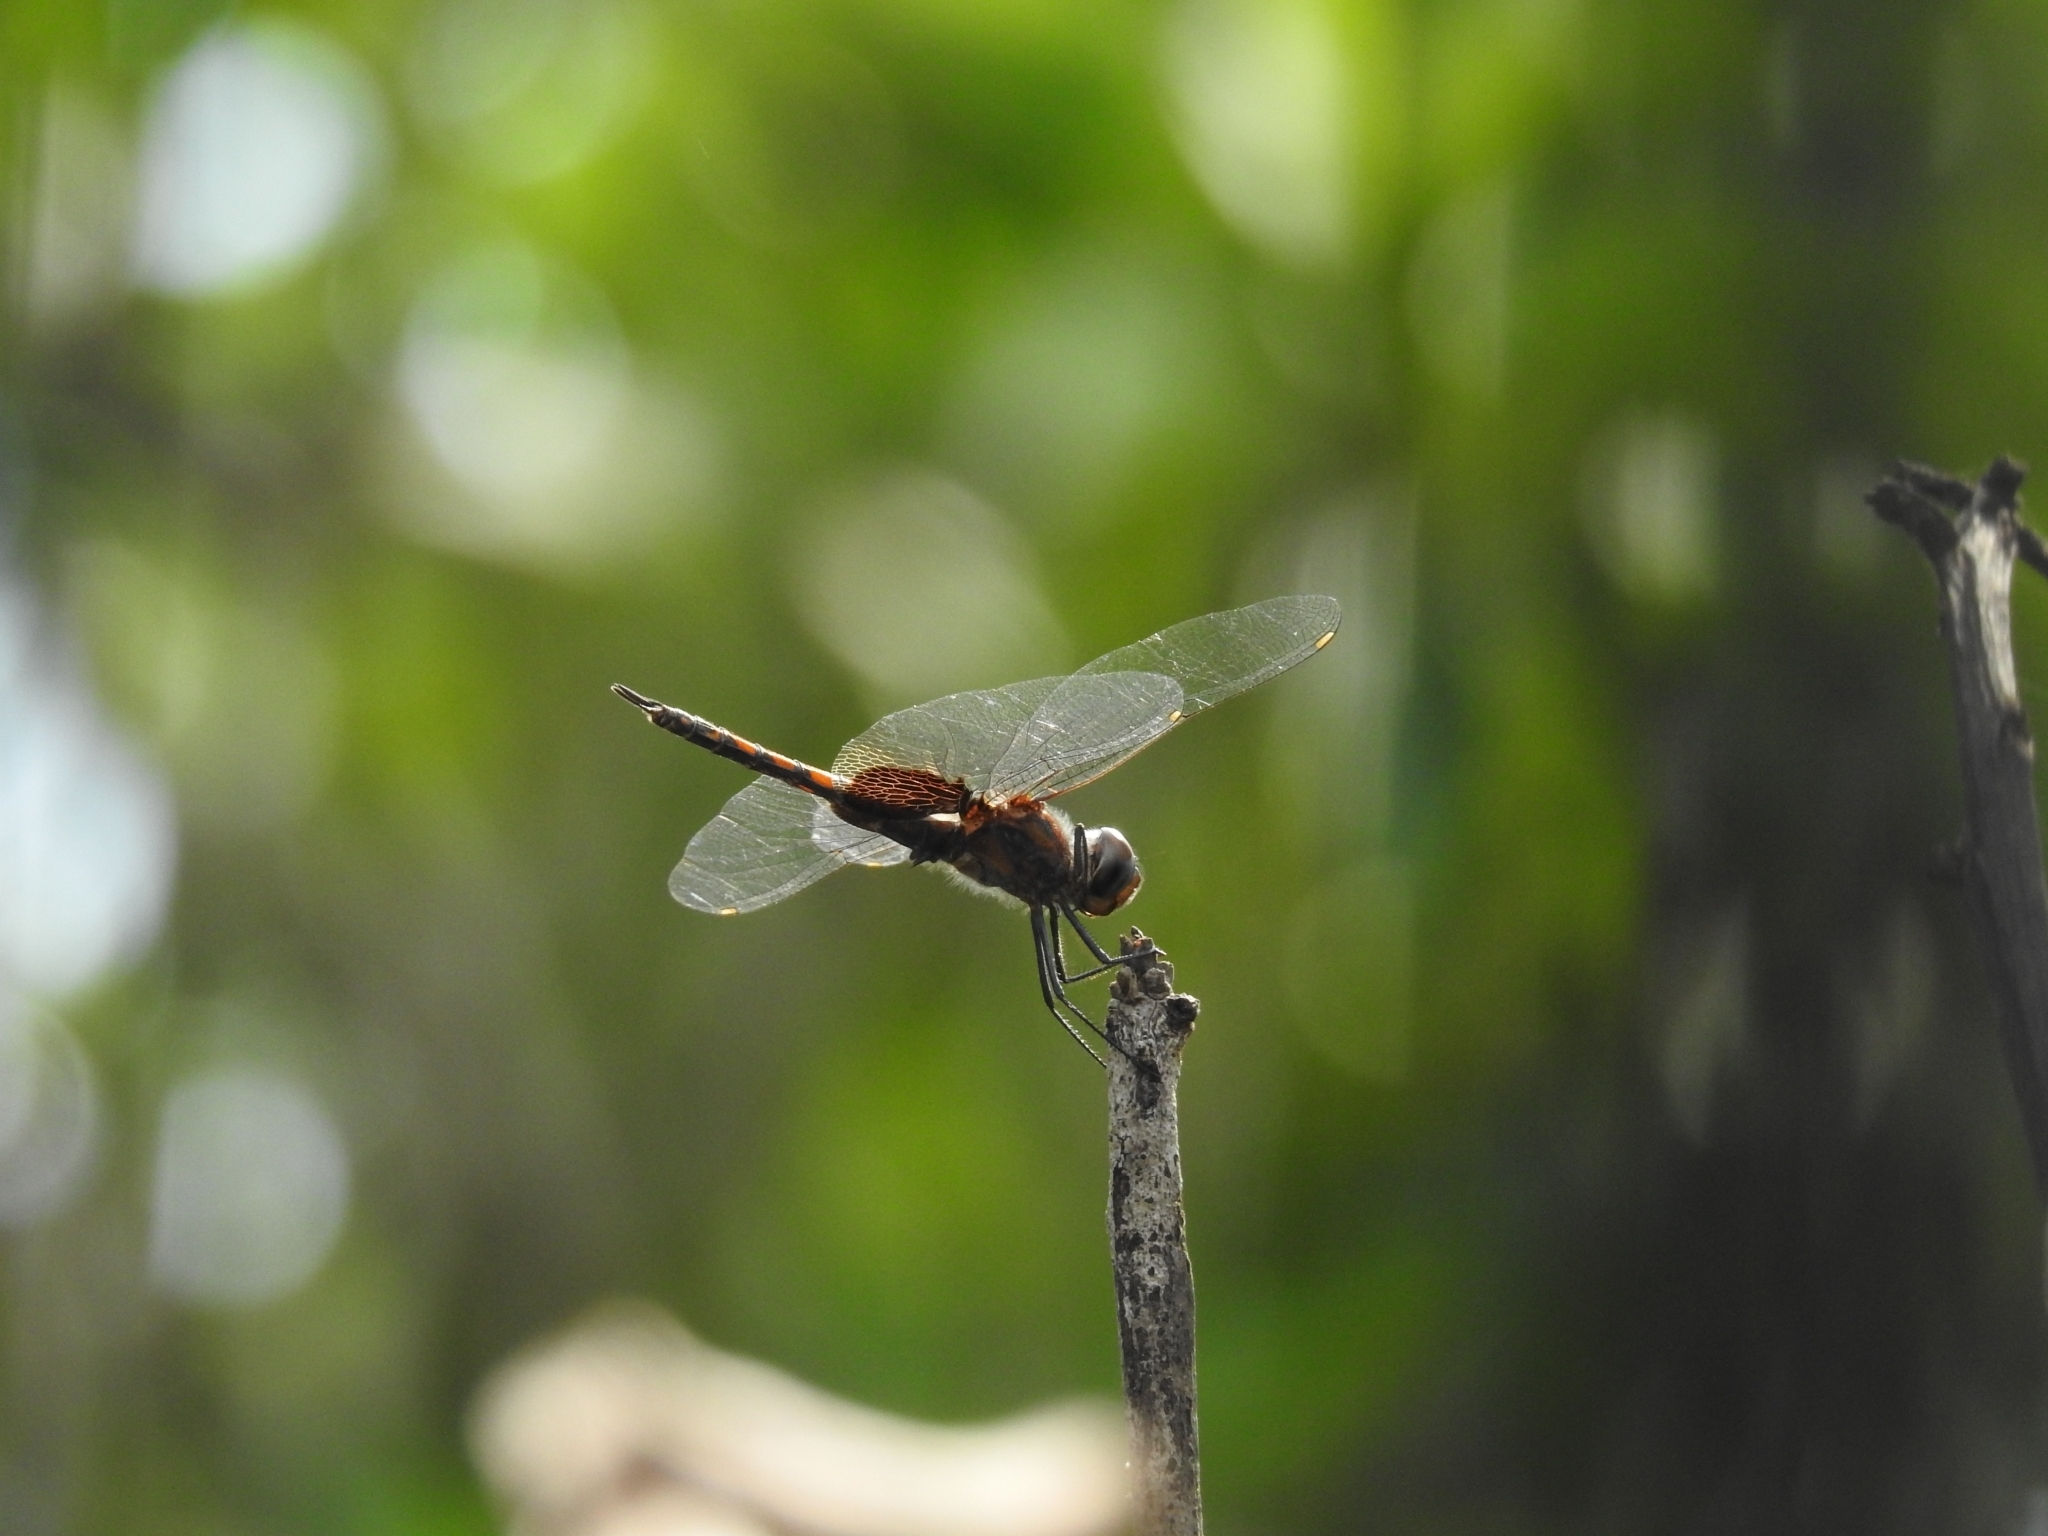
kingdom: Animalia
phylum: Arthropoda
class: Insecta
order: Odonata
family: Libellulidae
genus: Tramea
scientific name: Tramea limbata
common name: Ferruginous glider
